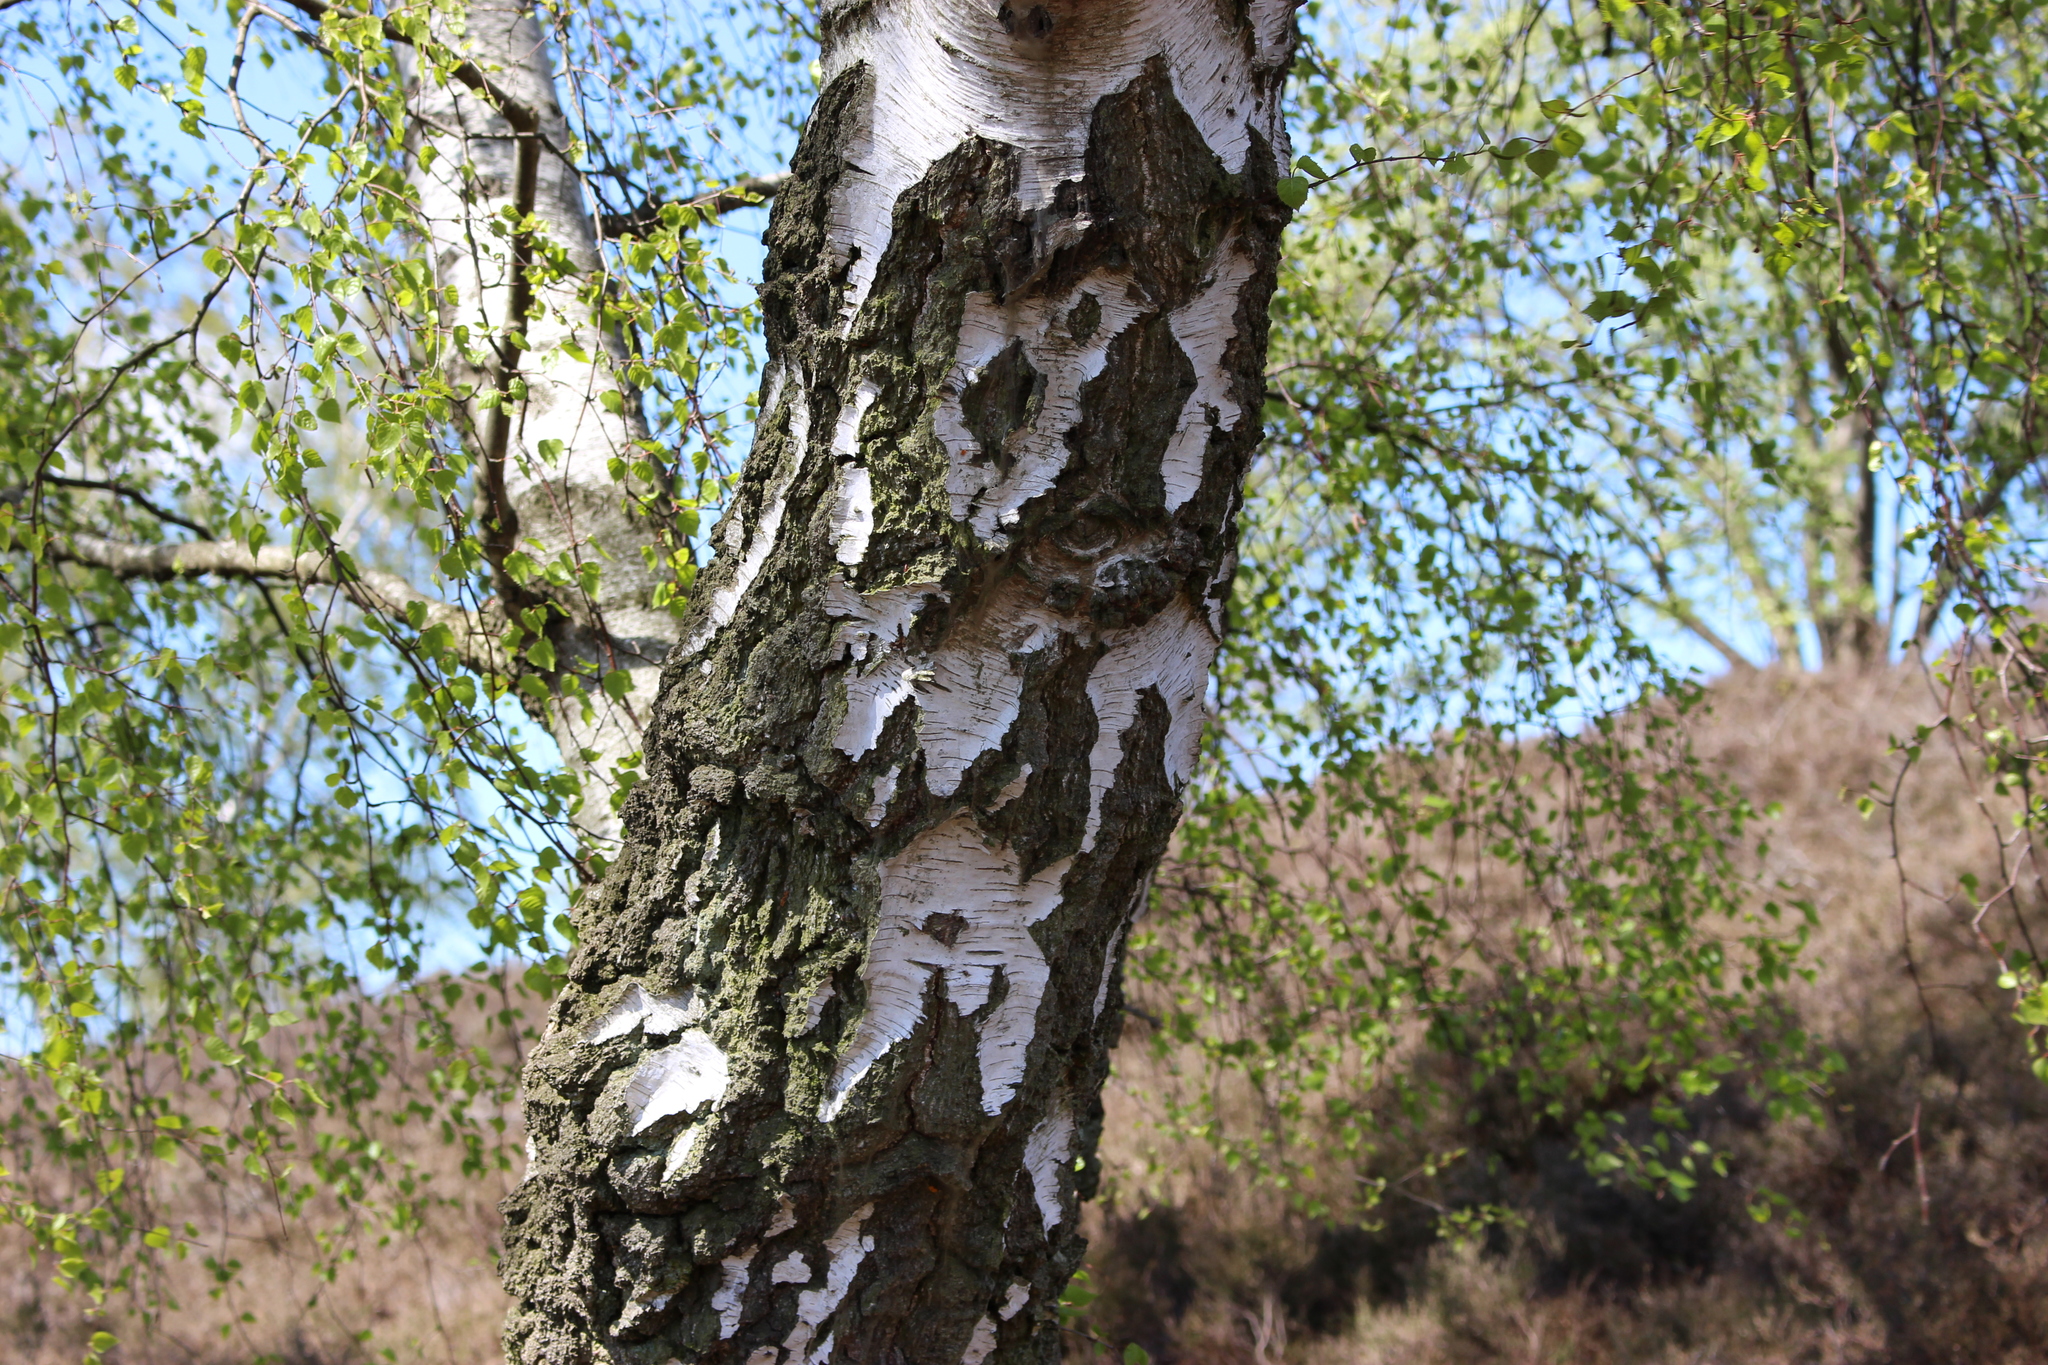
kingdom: Plantae
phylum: Tracheophyta
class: Magnoliopsida
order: Fagales
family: Betulaceae
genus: Betula
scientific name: Betula pendula
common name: Silver birch
